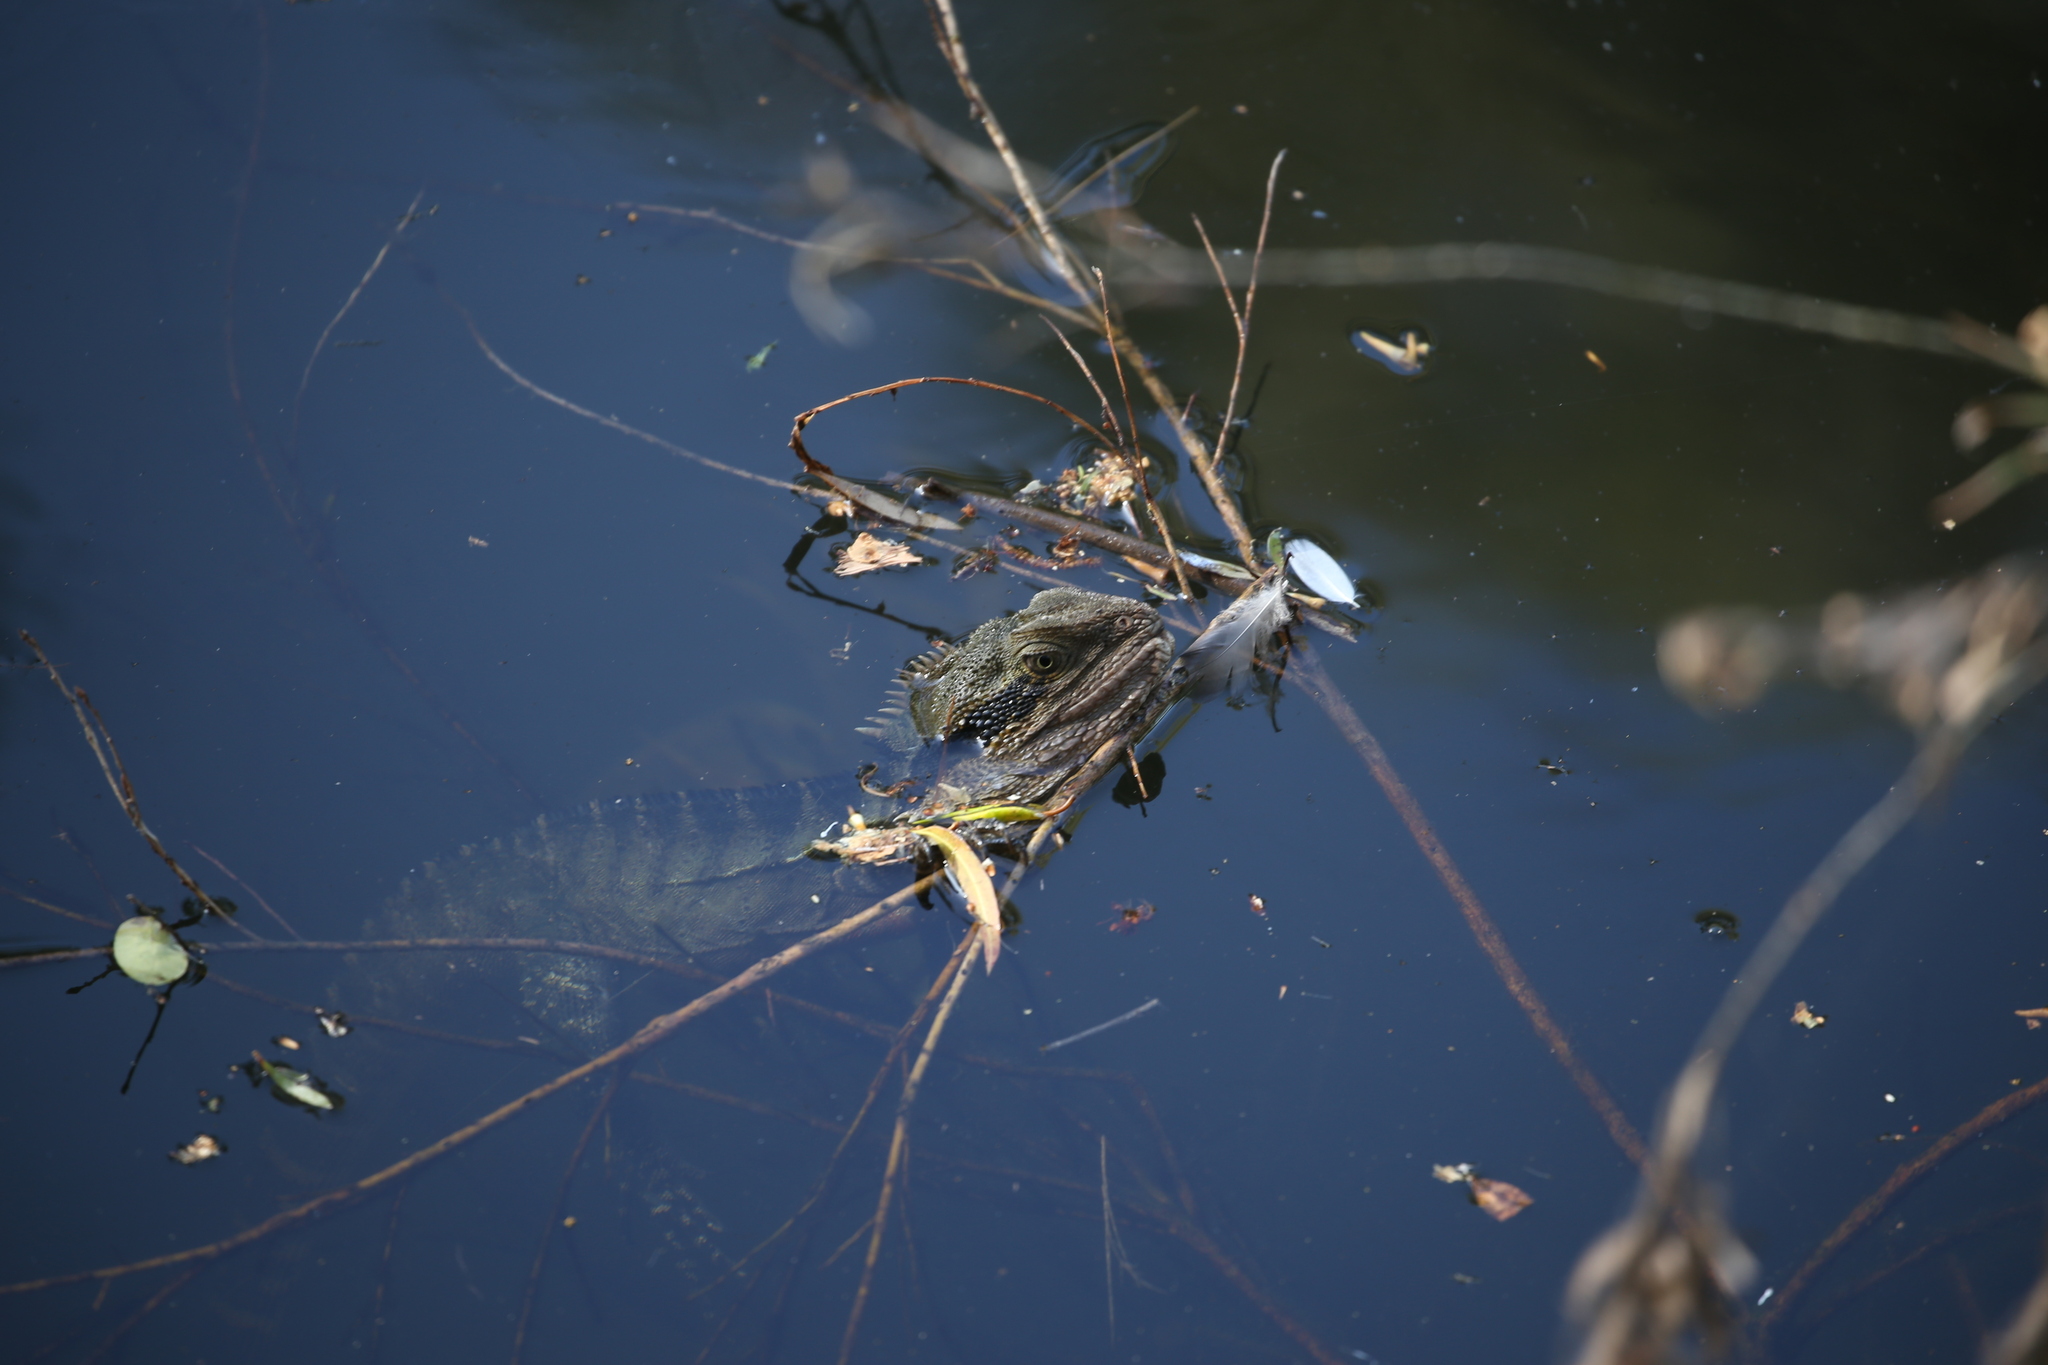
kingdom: Animalia
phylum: Chordata
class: Squamata
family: Agamidae
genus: Intellagama
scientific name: Intellagama lesueurii
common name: Eastern water dragon
